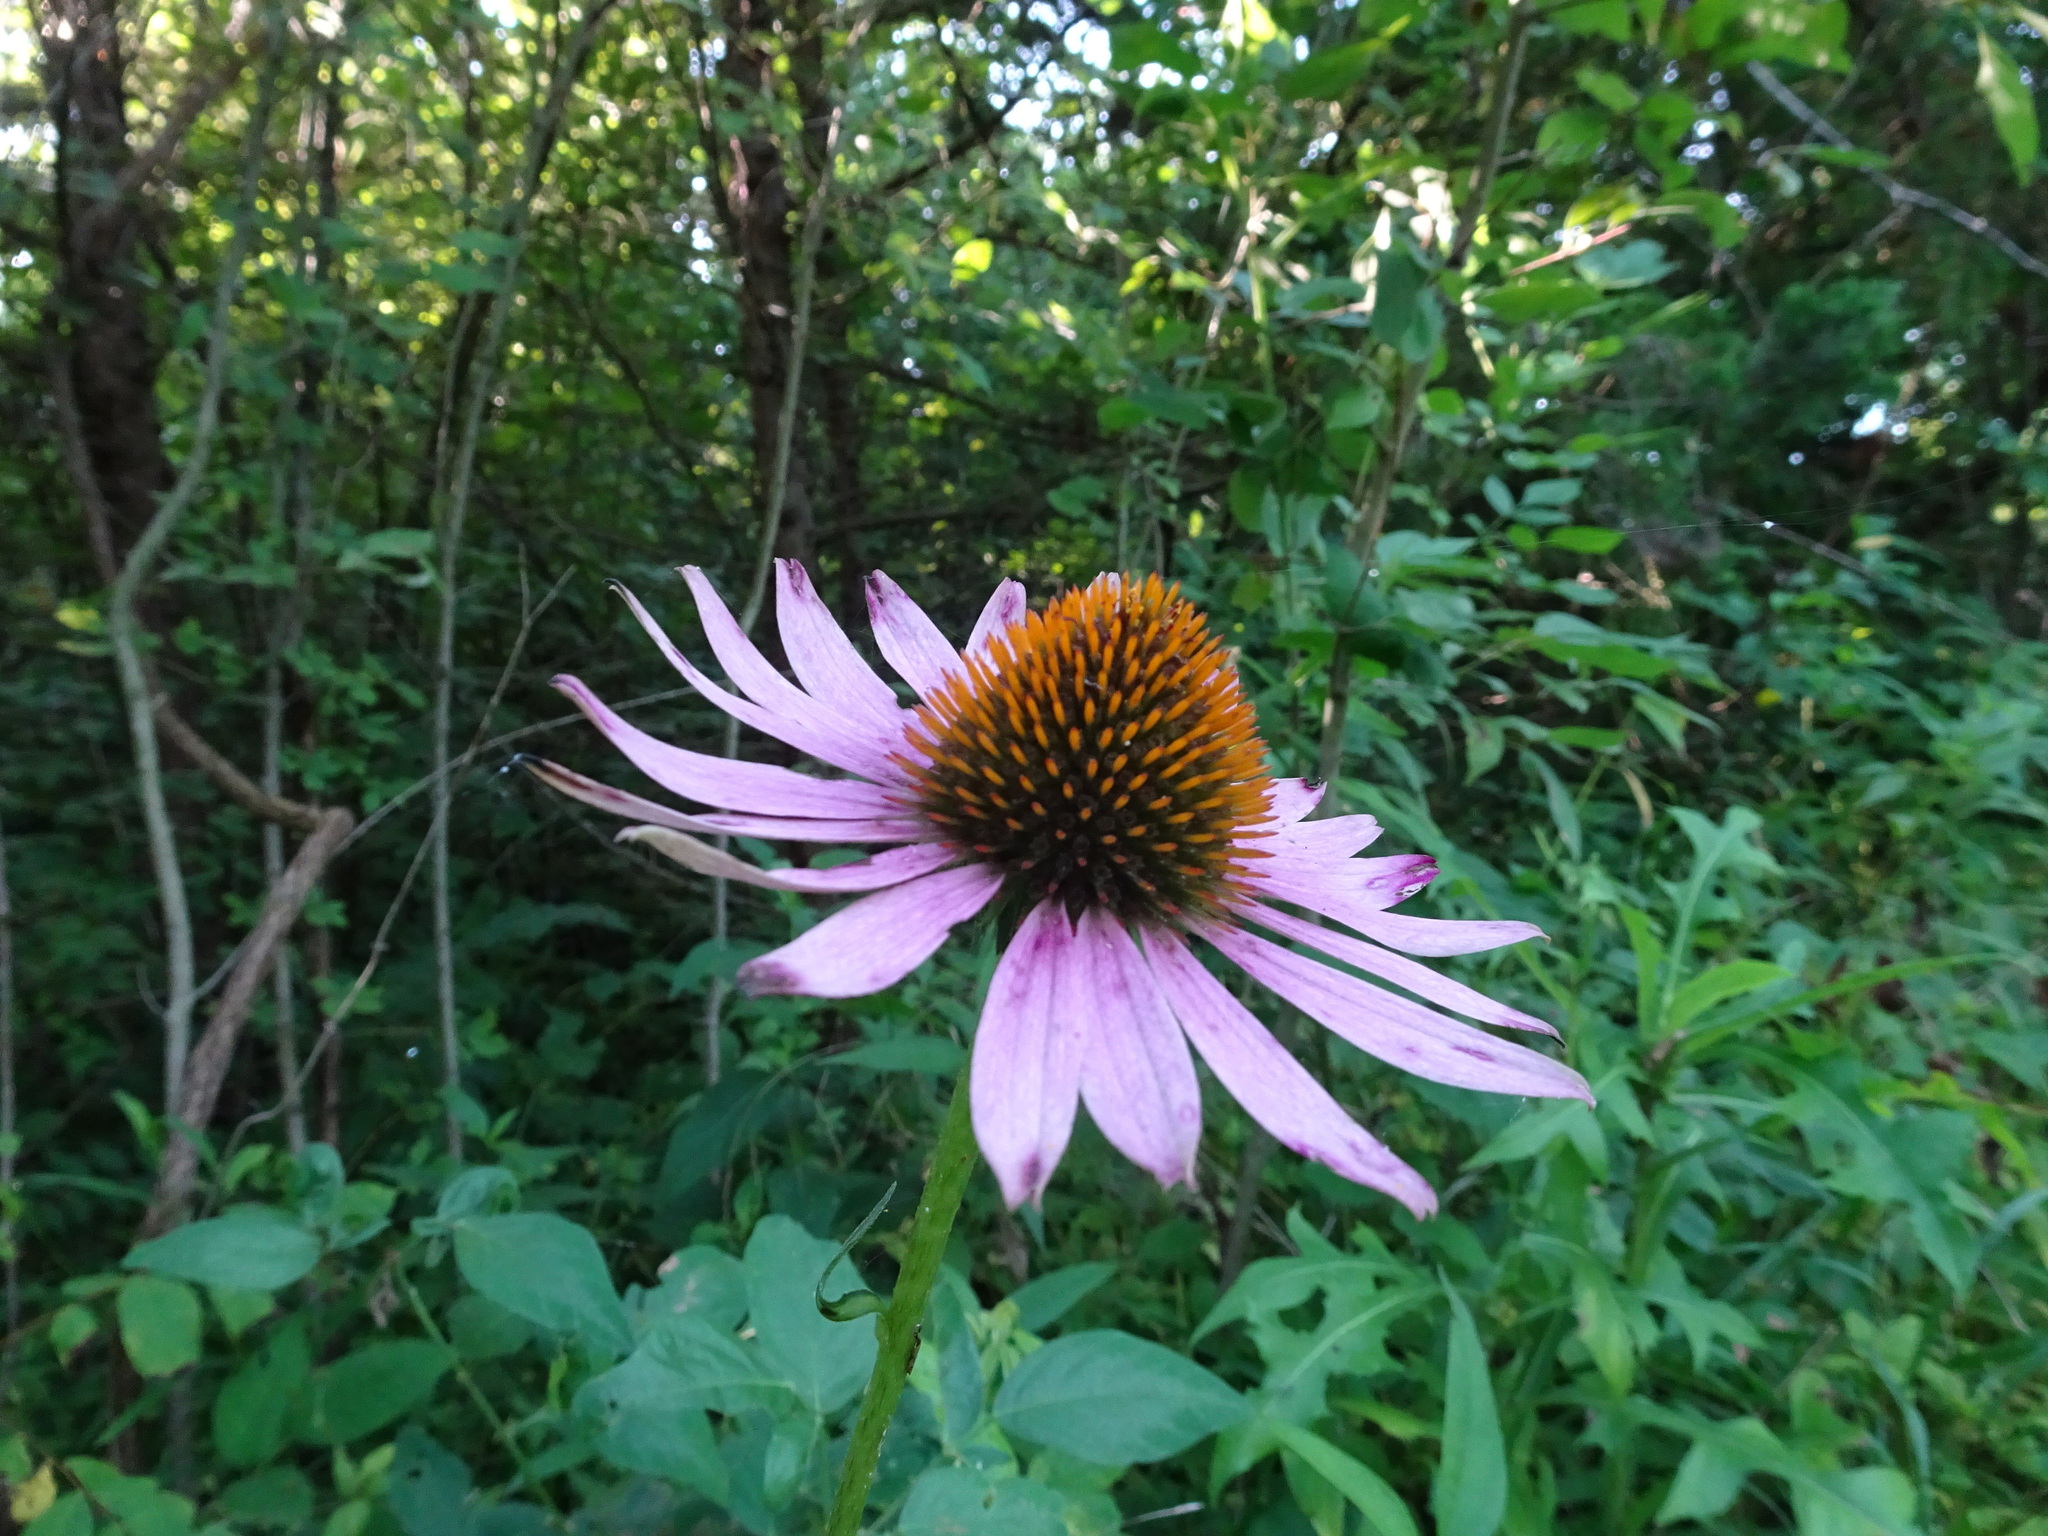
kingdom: Plantae
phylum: Tracheophyta
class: Magnoliopsida
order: Asterales
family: Asteraceae
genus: Echinacea
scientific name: Echinacea purpurea
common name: Broad-leaved purple coneflower
